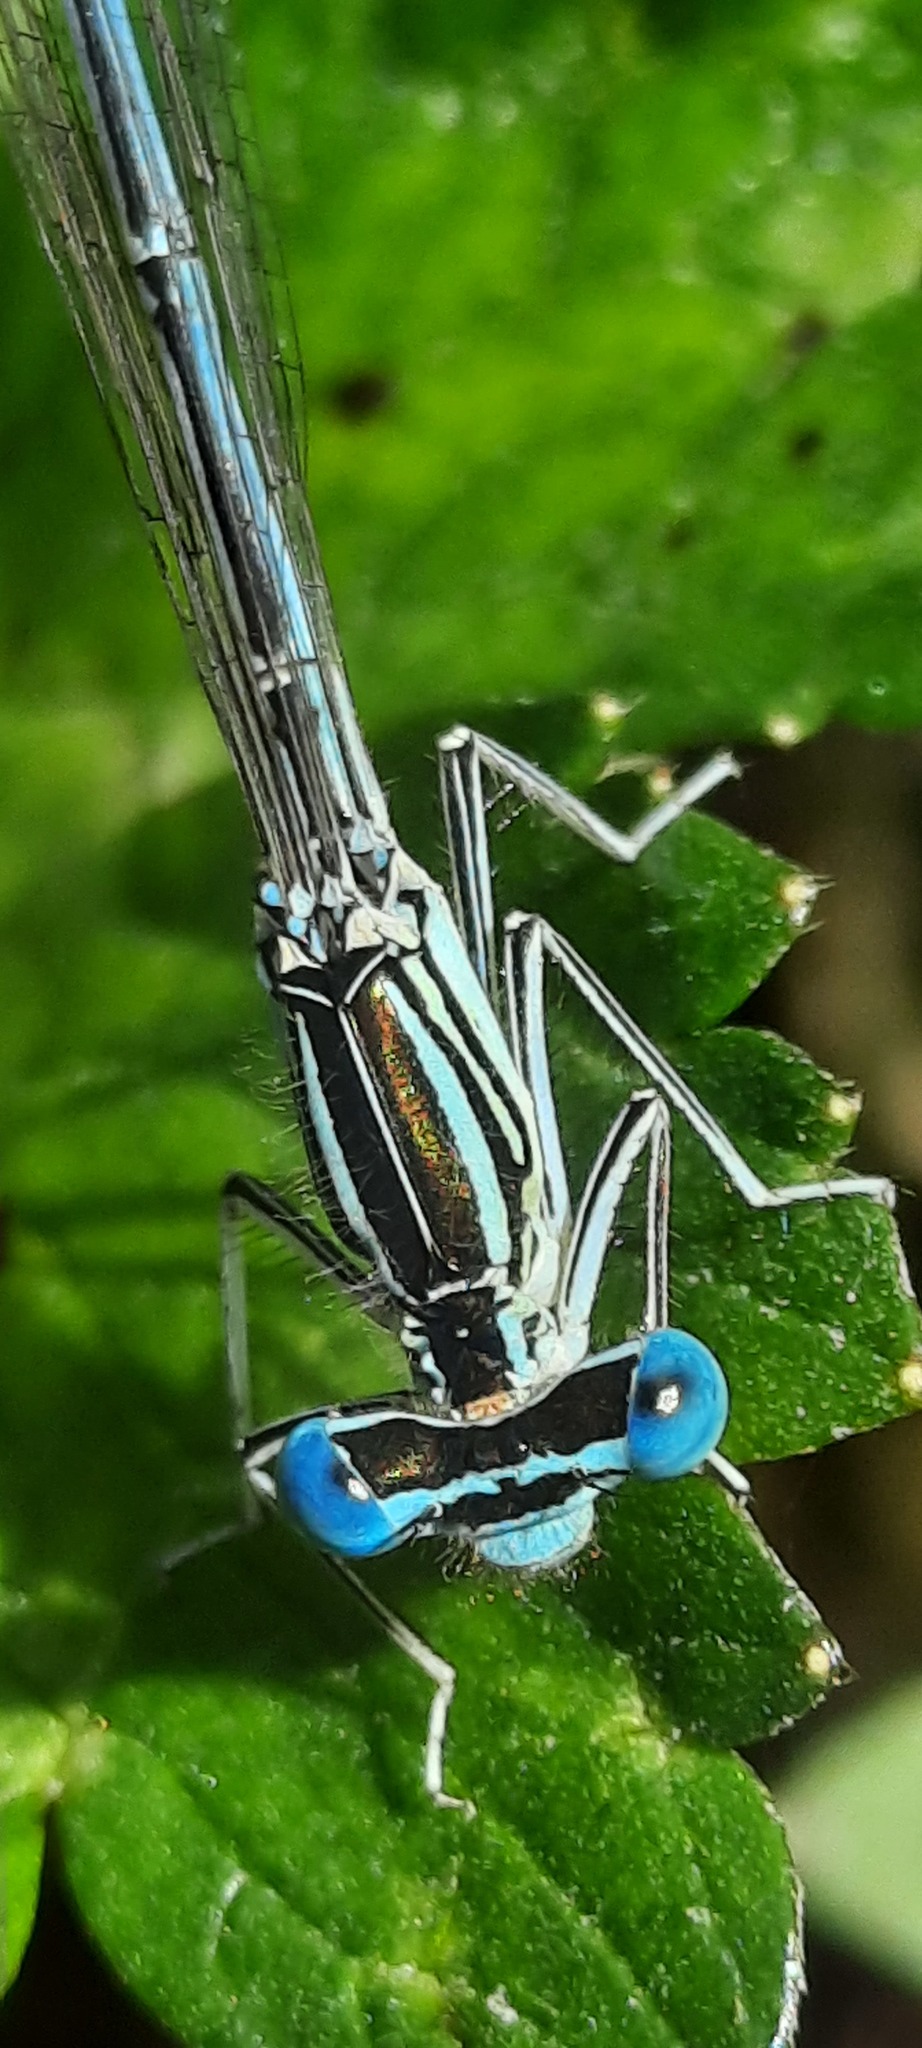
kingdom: Animalia
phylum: Arthropoda
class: Insecta
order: Odonata
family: Platycnemididae
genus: Platycnemis
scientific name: Platycnemis pennipes
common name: White-legged damselfly
